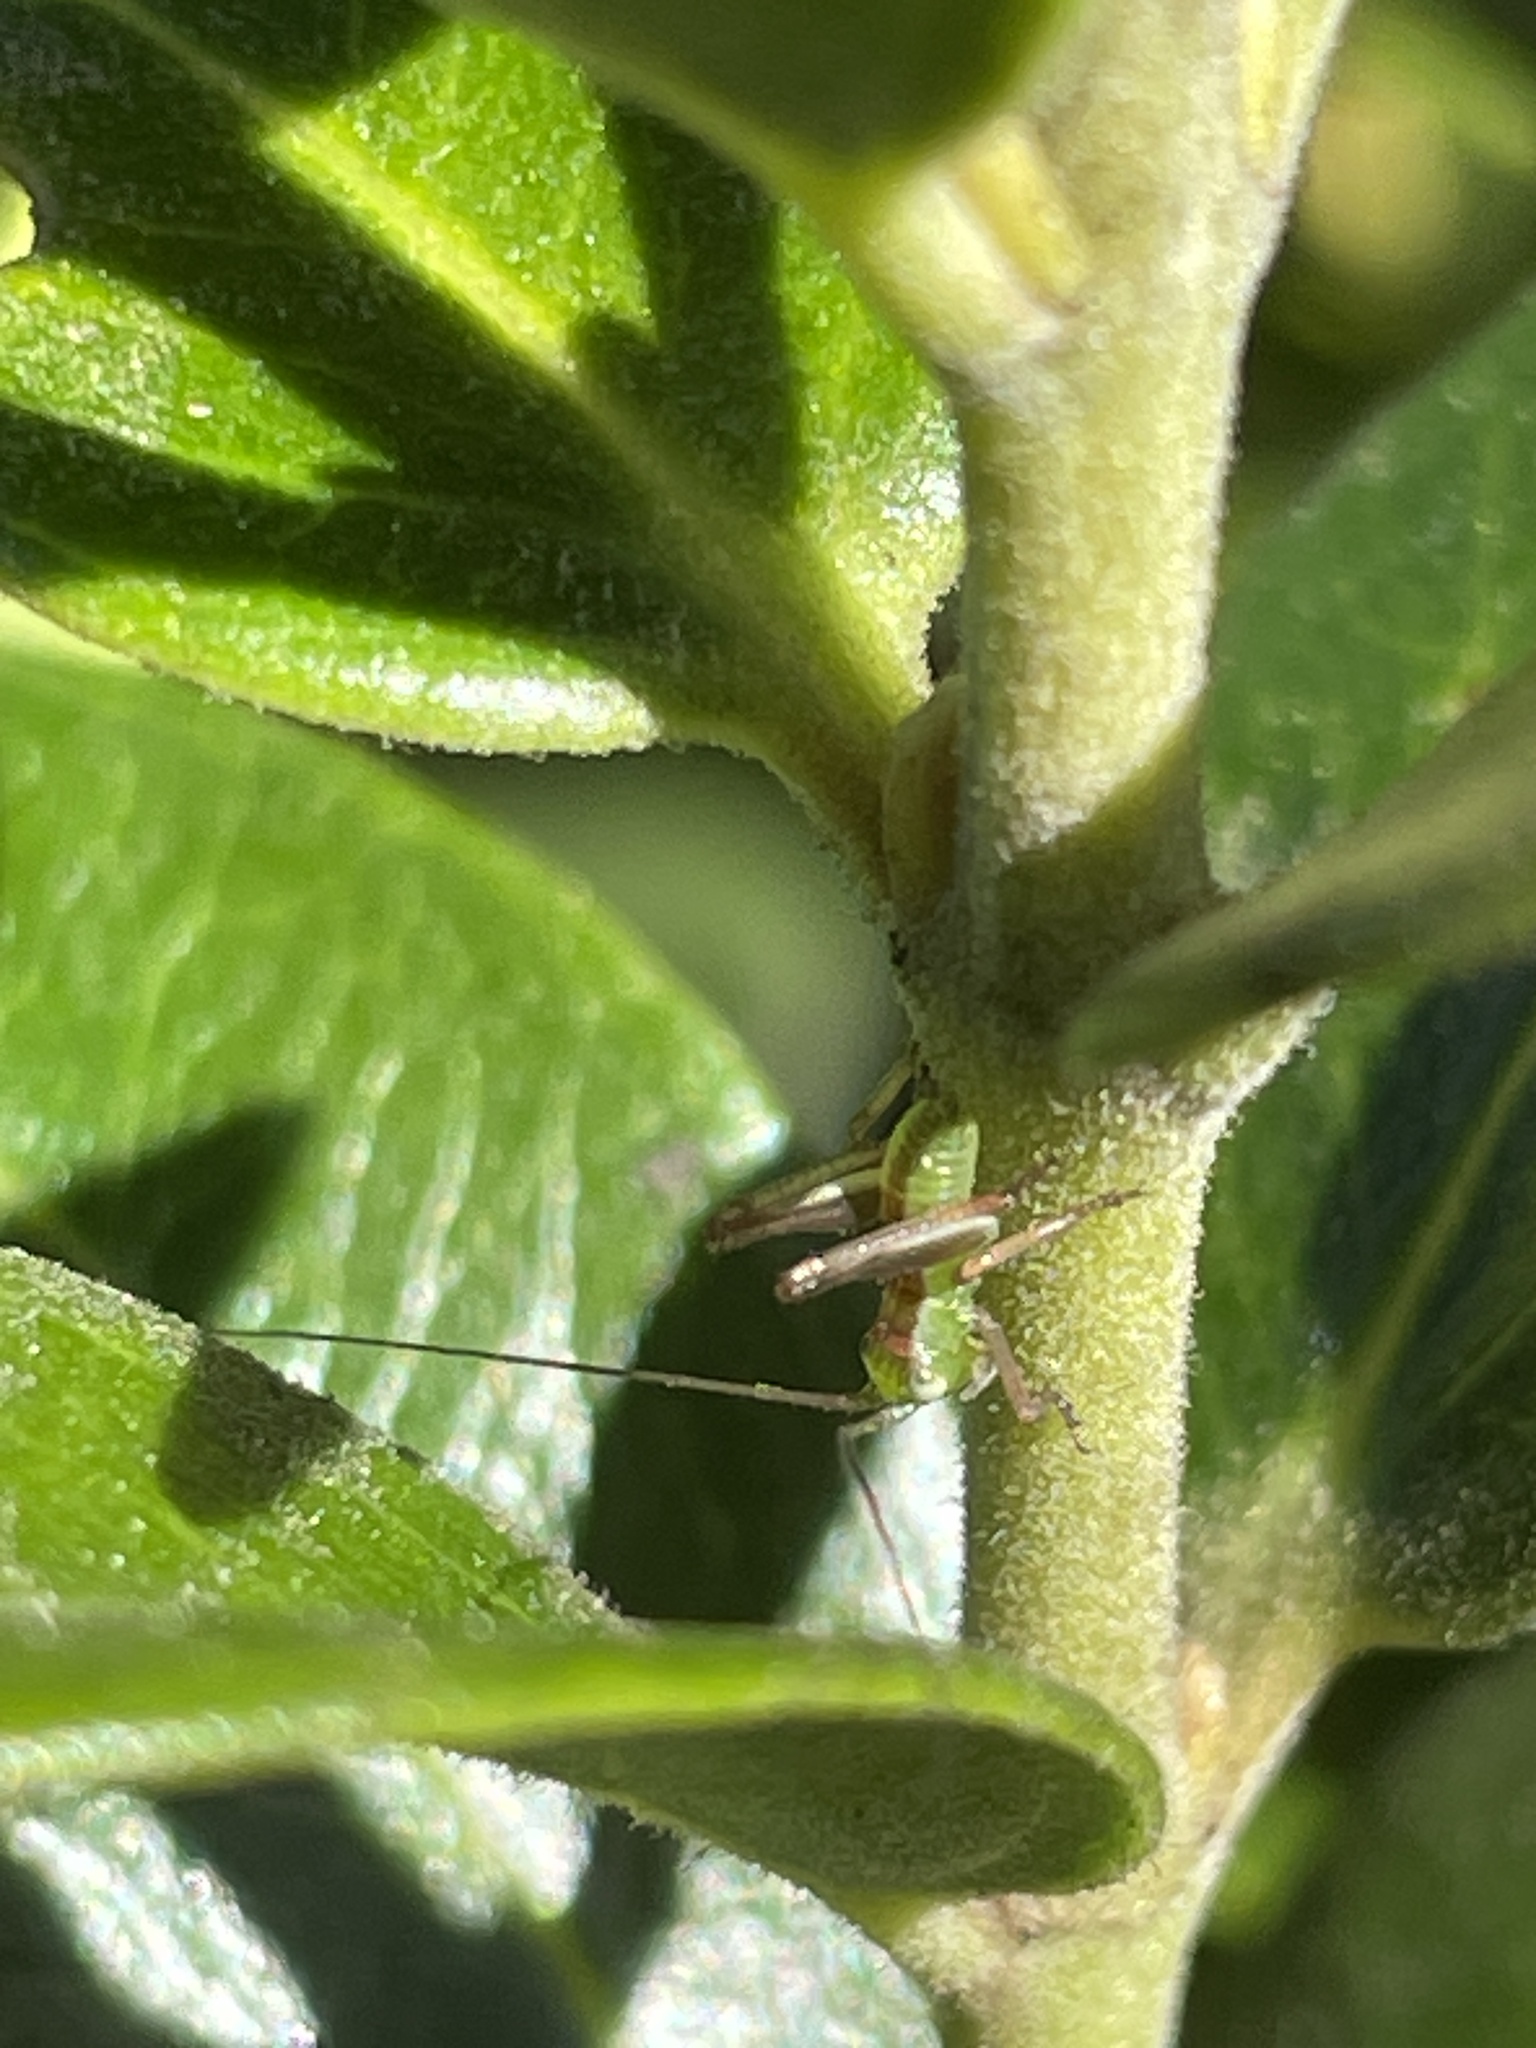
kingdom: Animalia
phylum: Arthropoda
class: Insecta
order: Orthoptera
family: Tettigoniidae
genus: Conocephalomima
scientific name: Conocephalomima barameda
